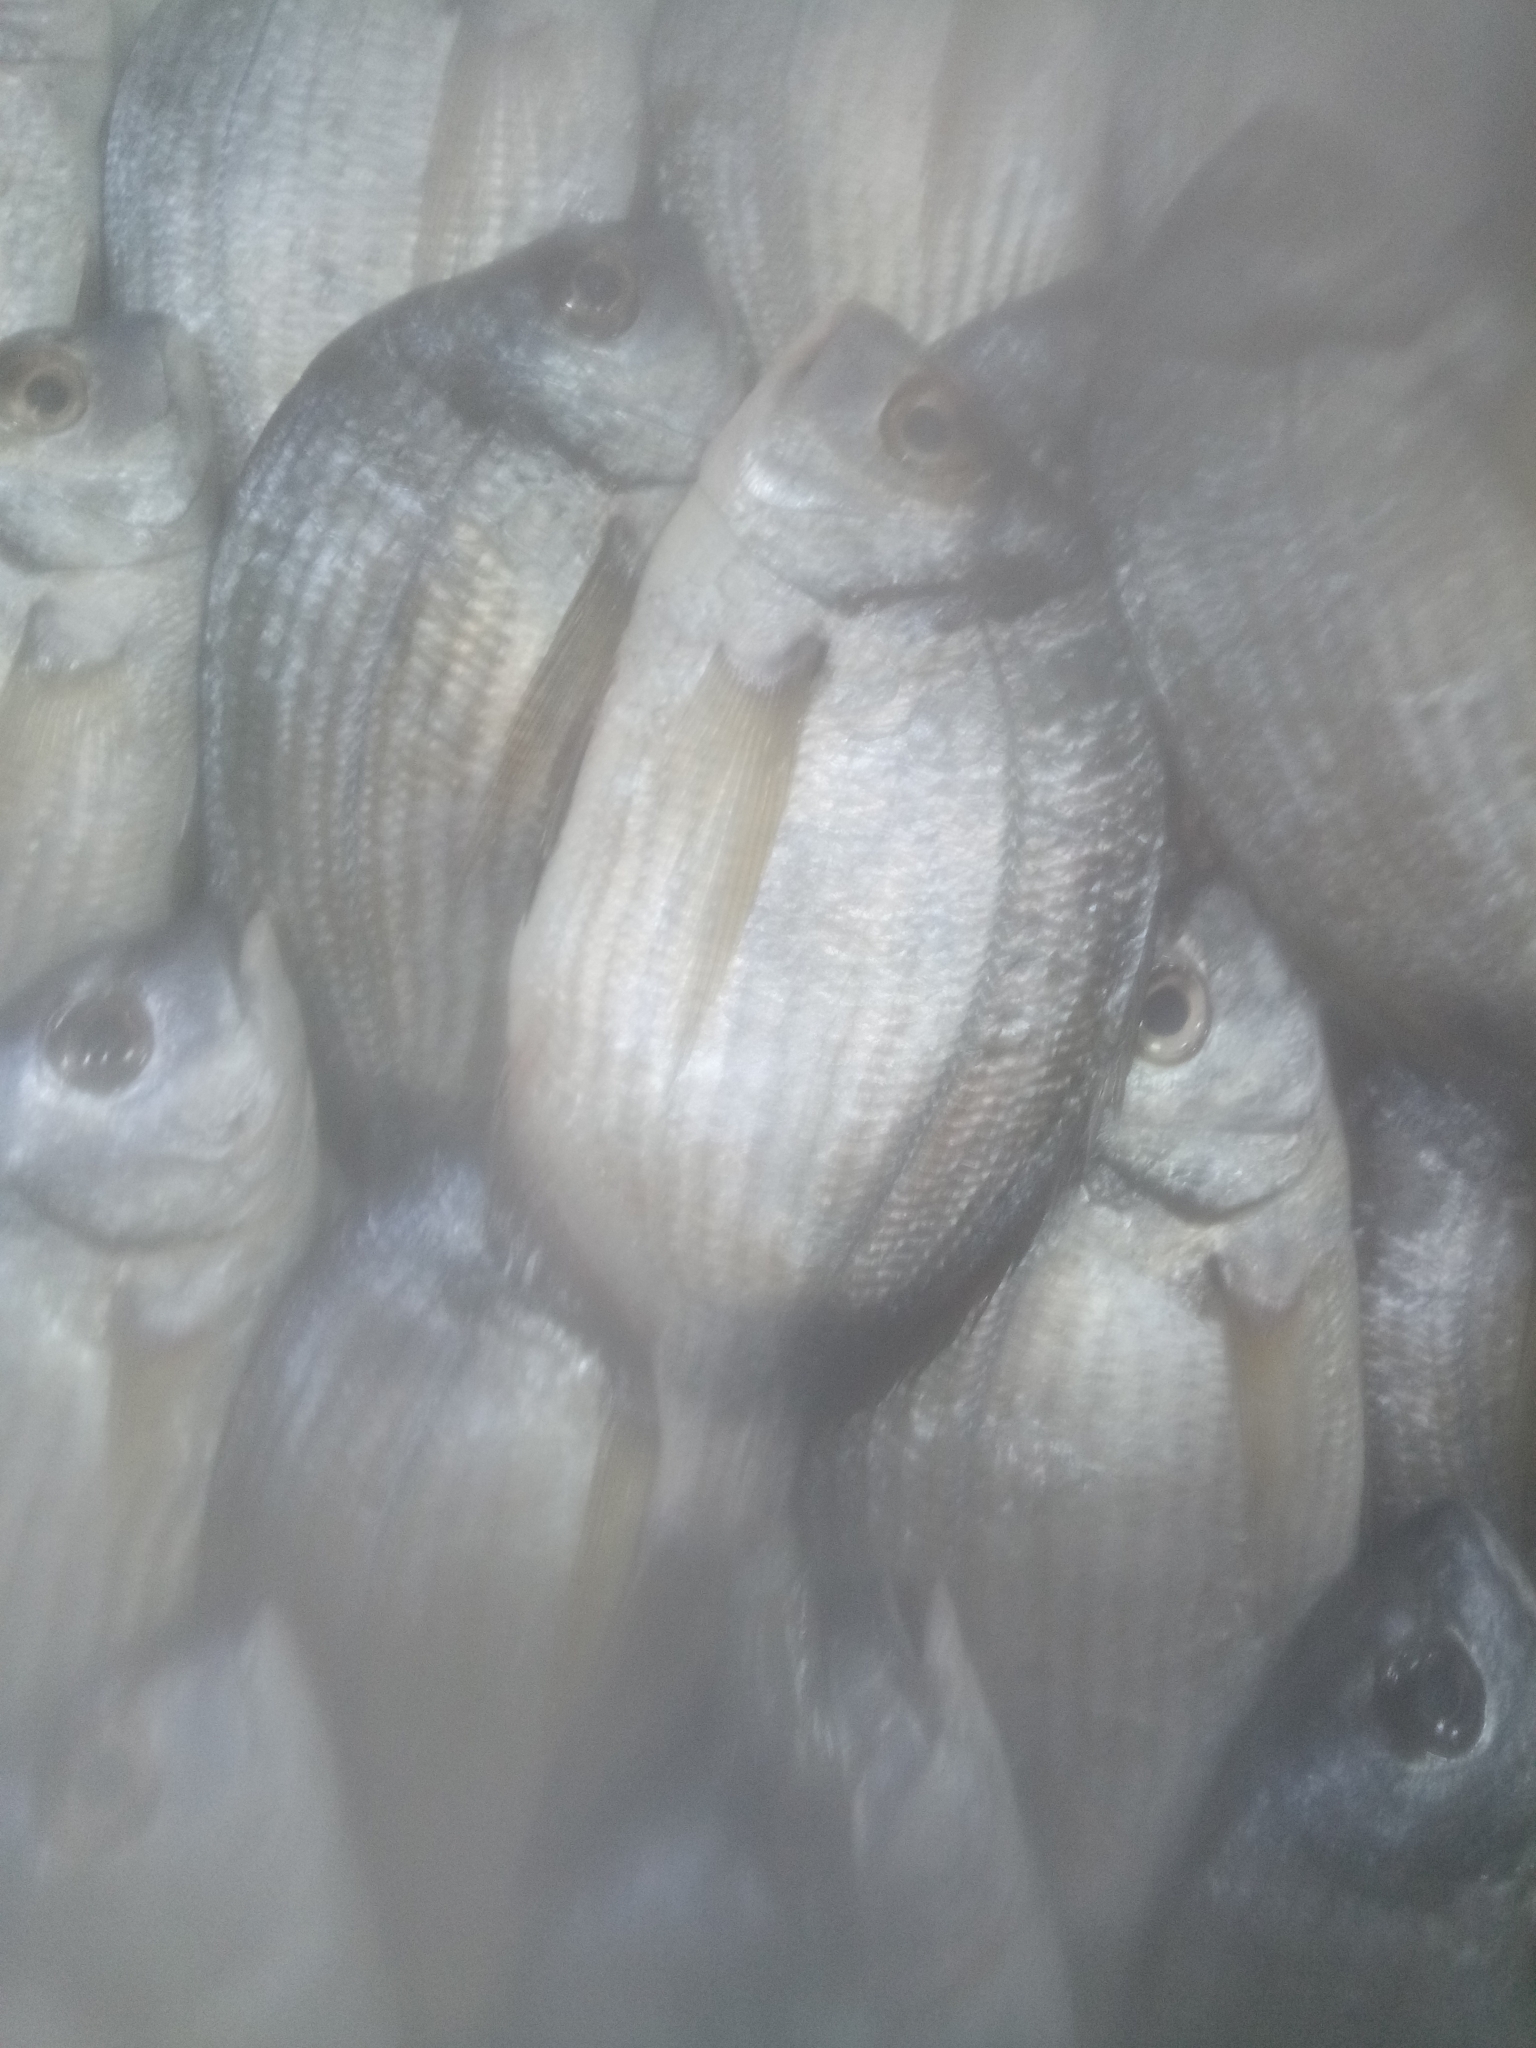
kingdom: Animalia
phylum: Chordata
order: Perciformes
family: Sparidae
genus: Diplodus
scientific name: Diplodus vulgaris
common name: Common two-banded seabream
